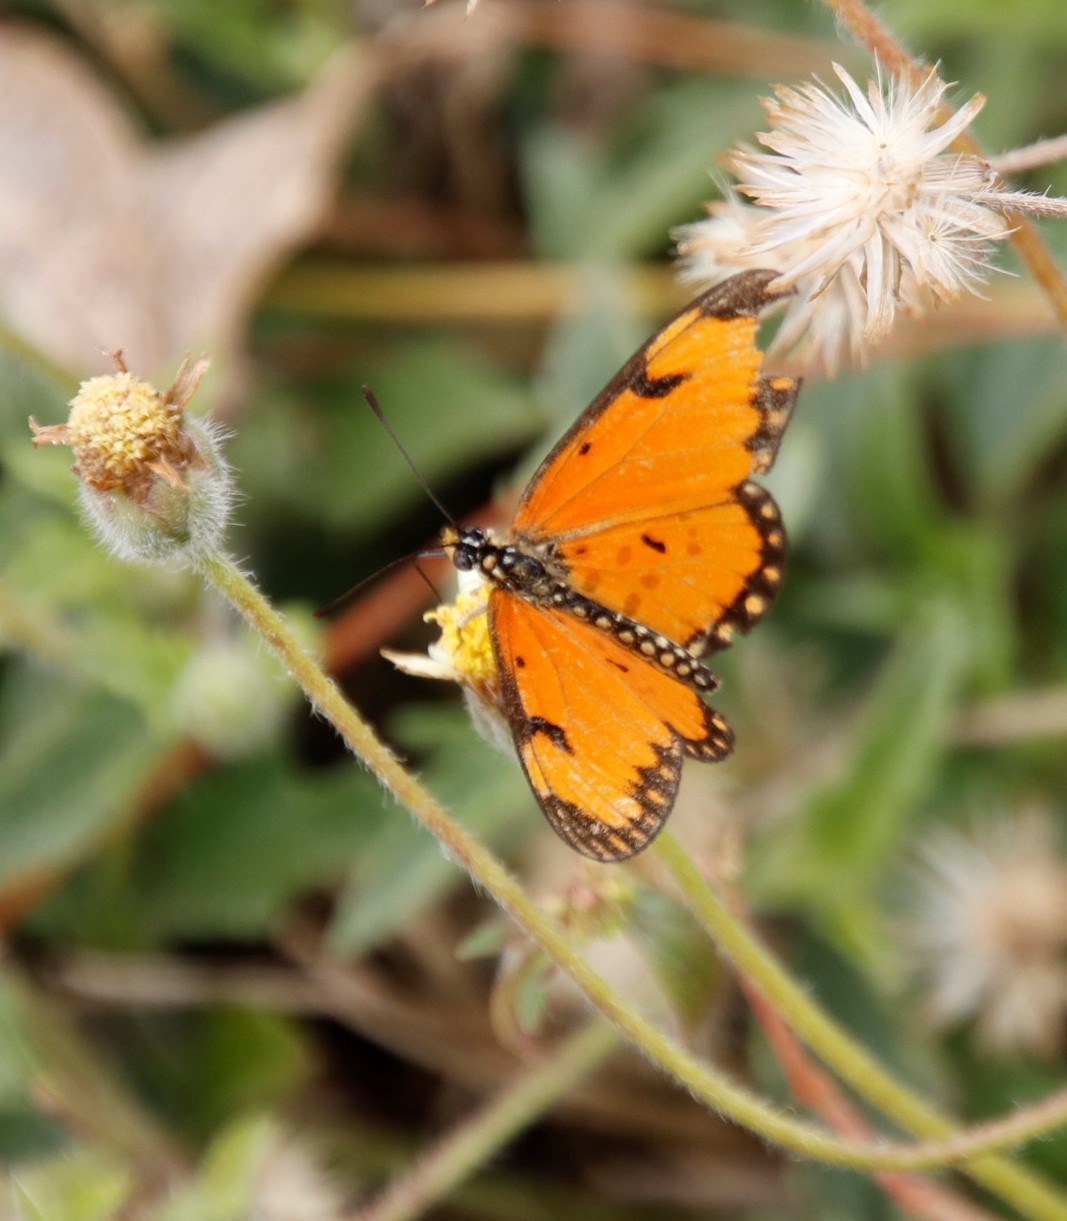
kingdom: Animalia
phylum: Arthropoda
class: Insecta
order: Lepidoptera
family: Nymphalidae
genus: Acraea
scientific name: Acraea Telchinia serena
